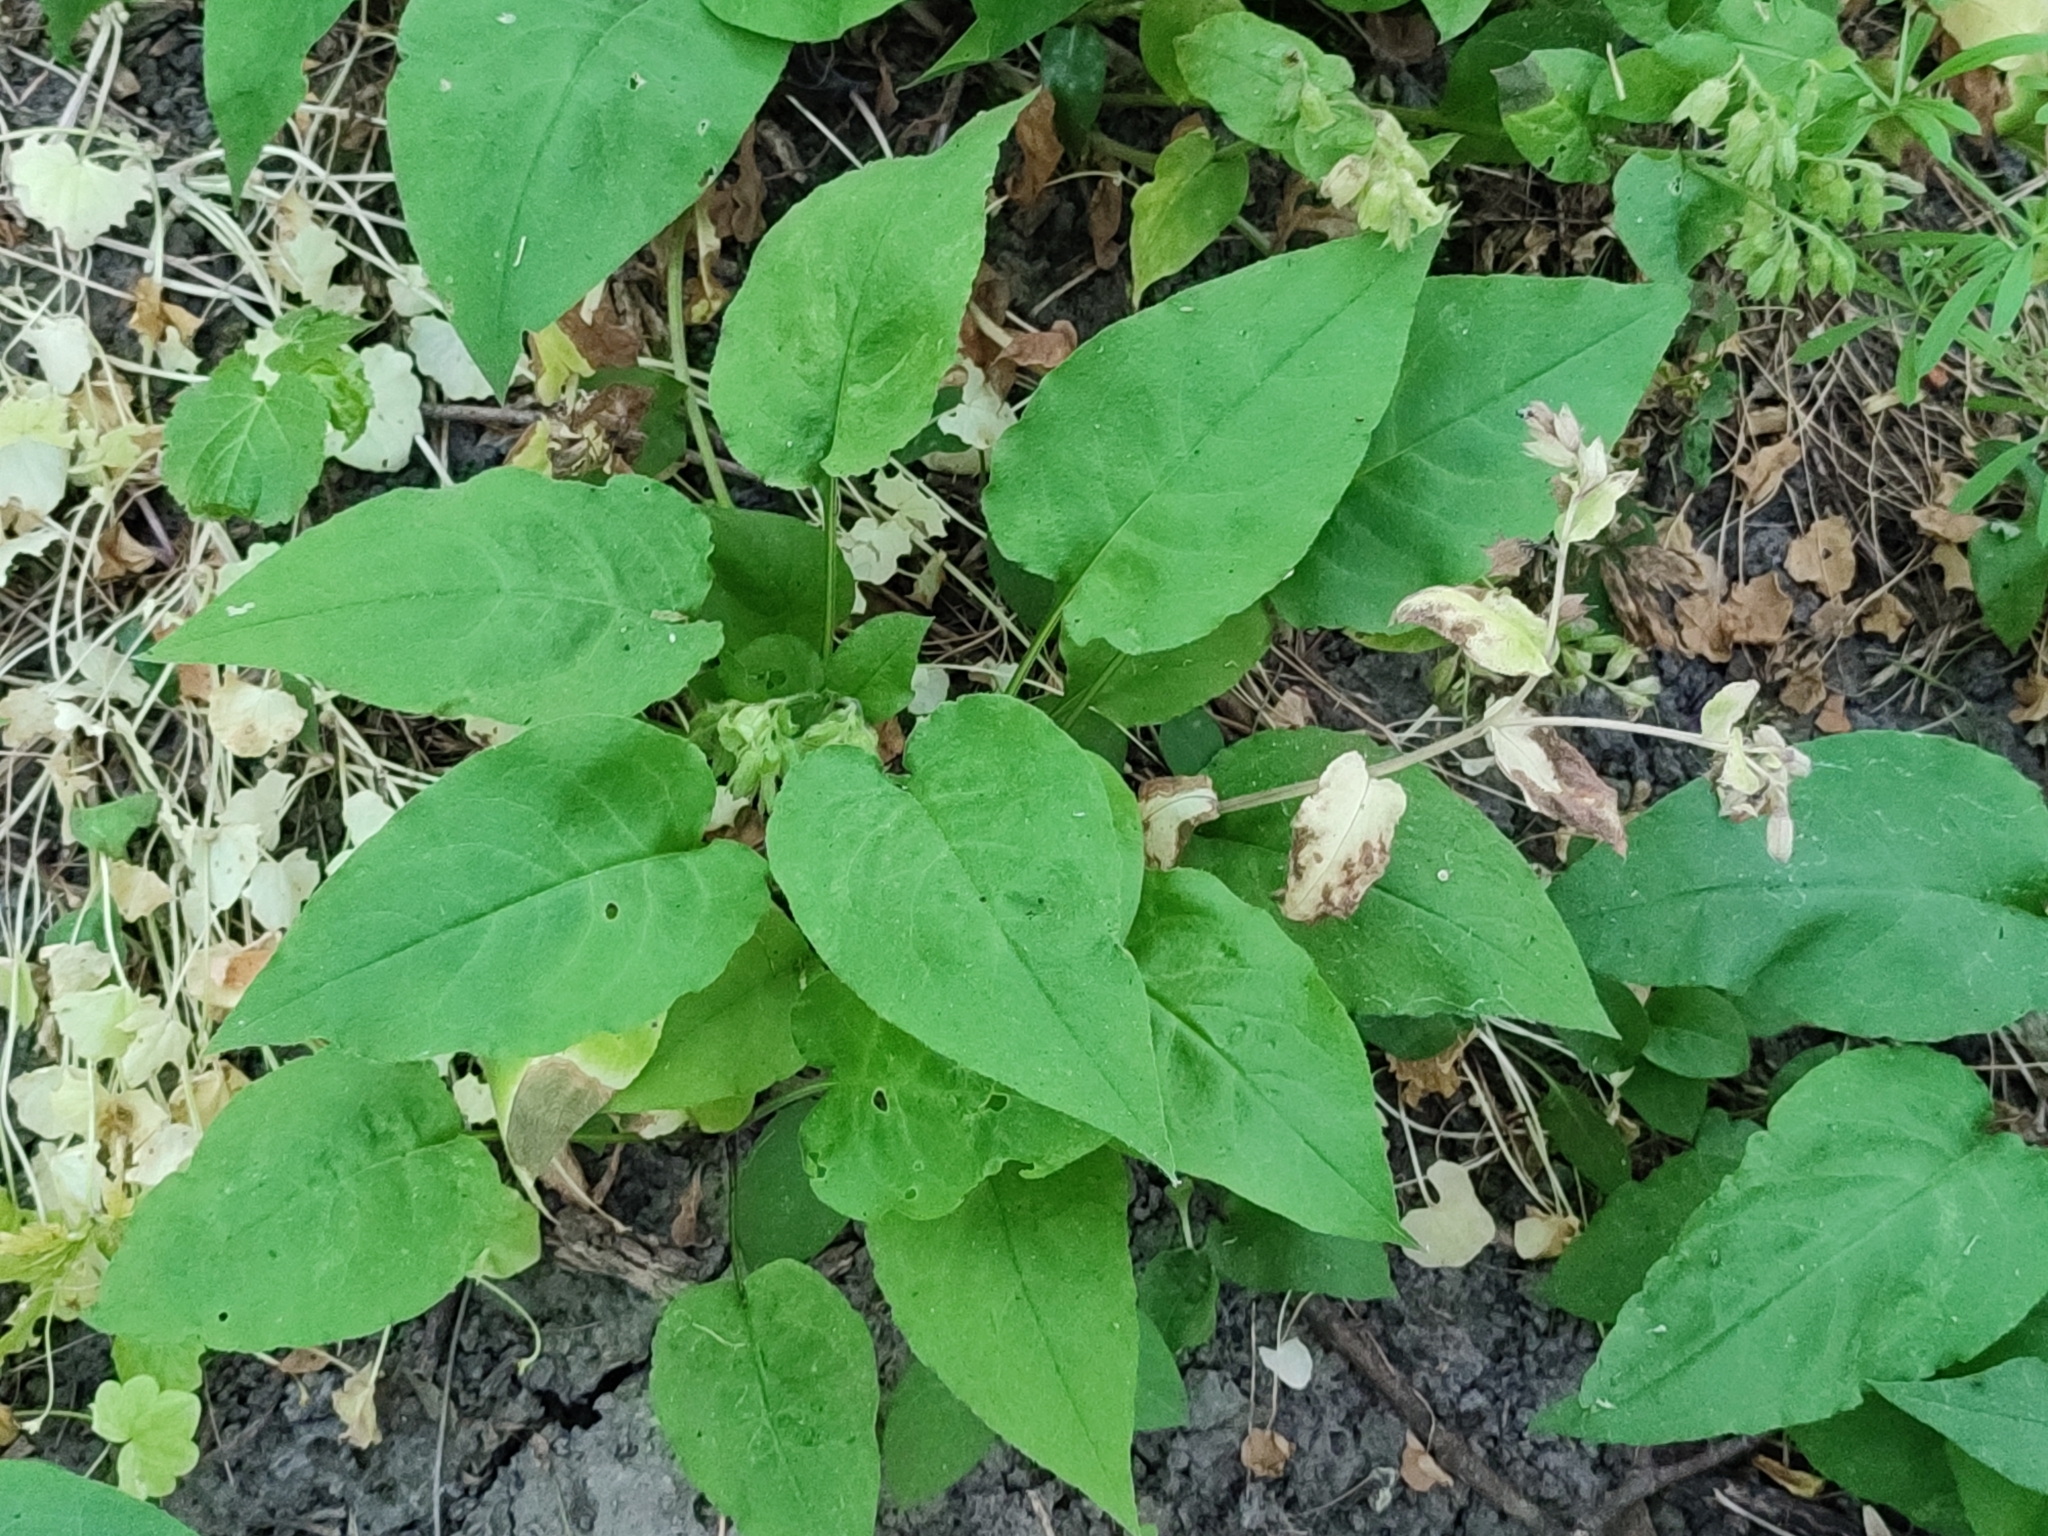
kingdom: Plantae
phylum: Tracheophyta
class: Magnoliopsida
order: Boraginales
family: Boraginaceae
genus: Pulmonaria
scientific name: Pulmonaria obscura
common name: Suffolk lungwort
